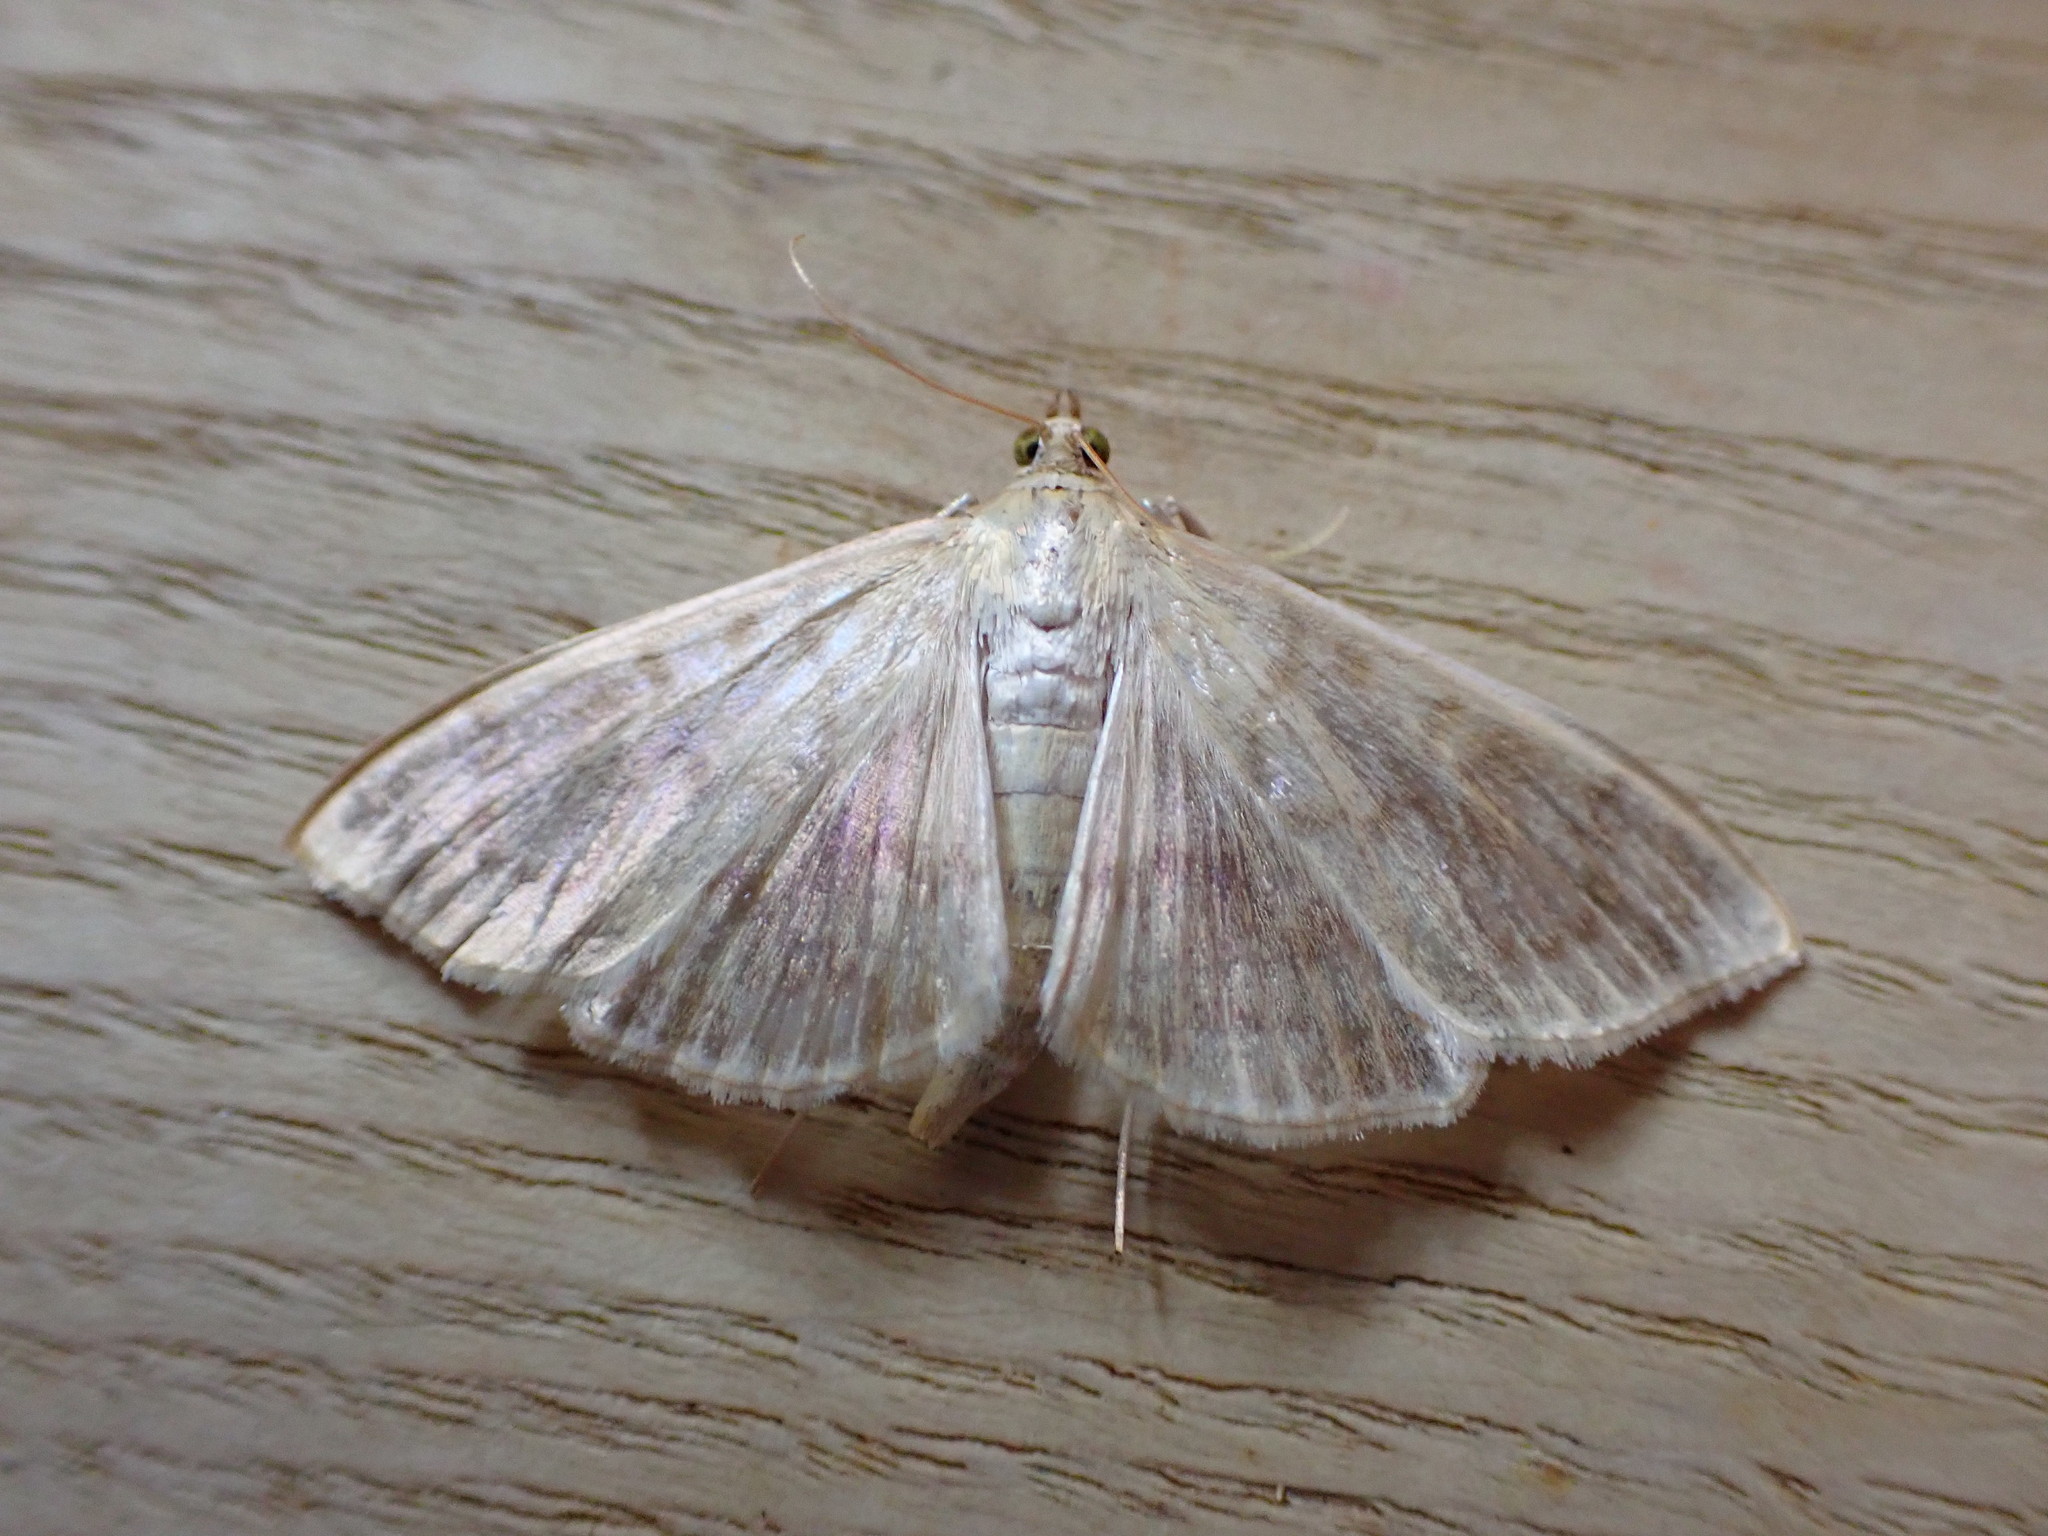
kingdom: Animalia
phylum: Arthropoda
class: Insecta
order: Lepidoptera
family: Crambidae
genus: Patania
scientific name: Patania ruralis
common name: Mother of pearl
